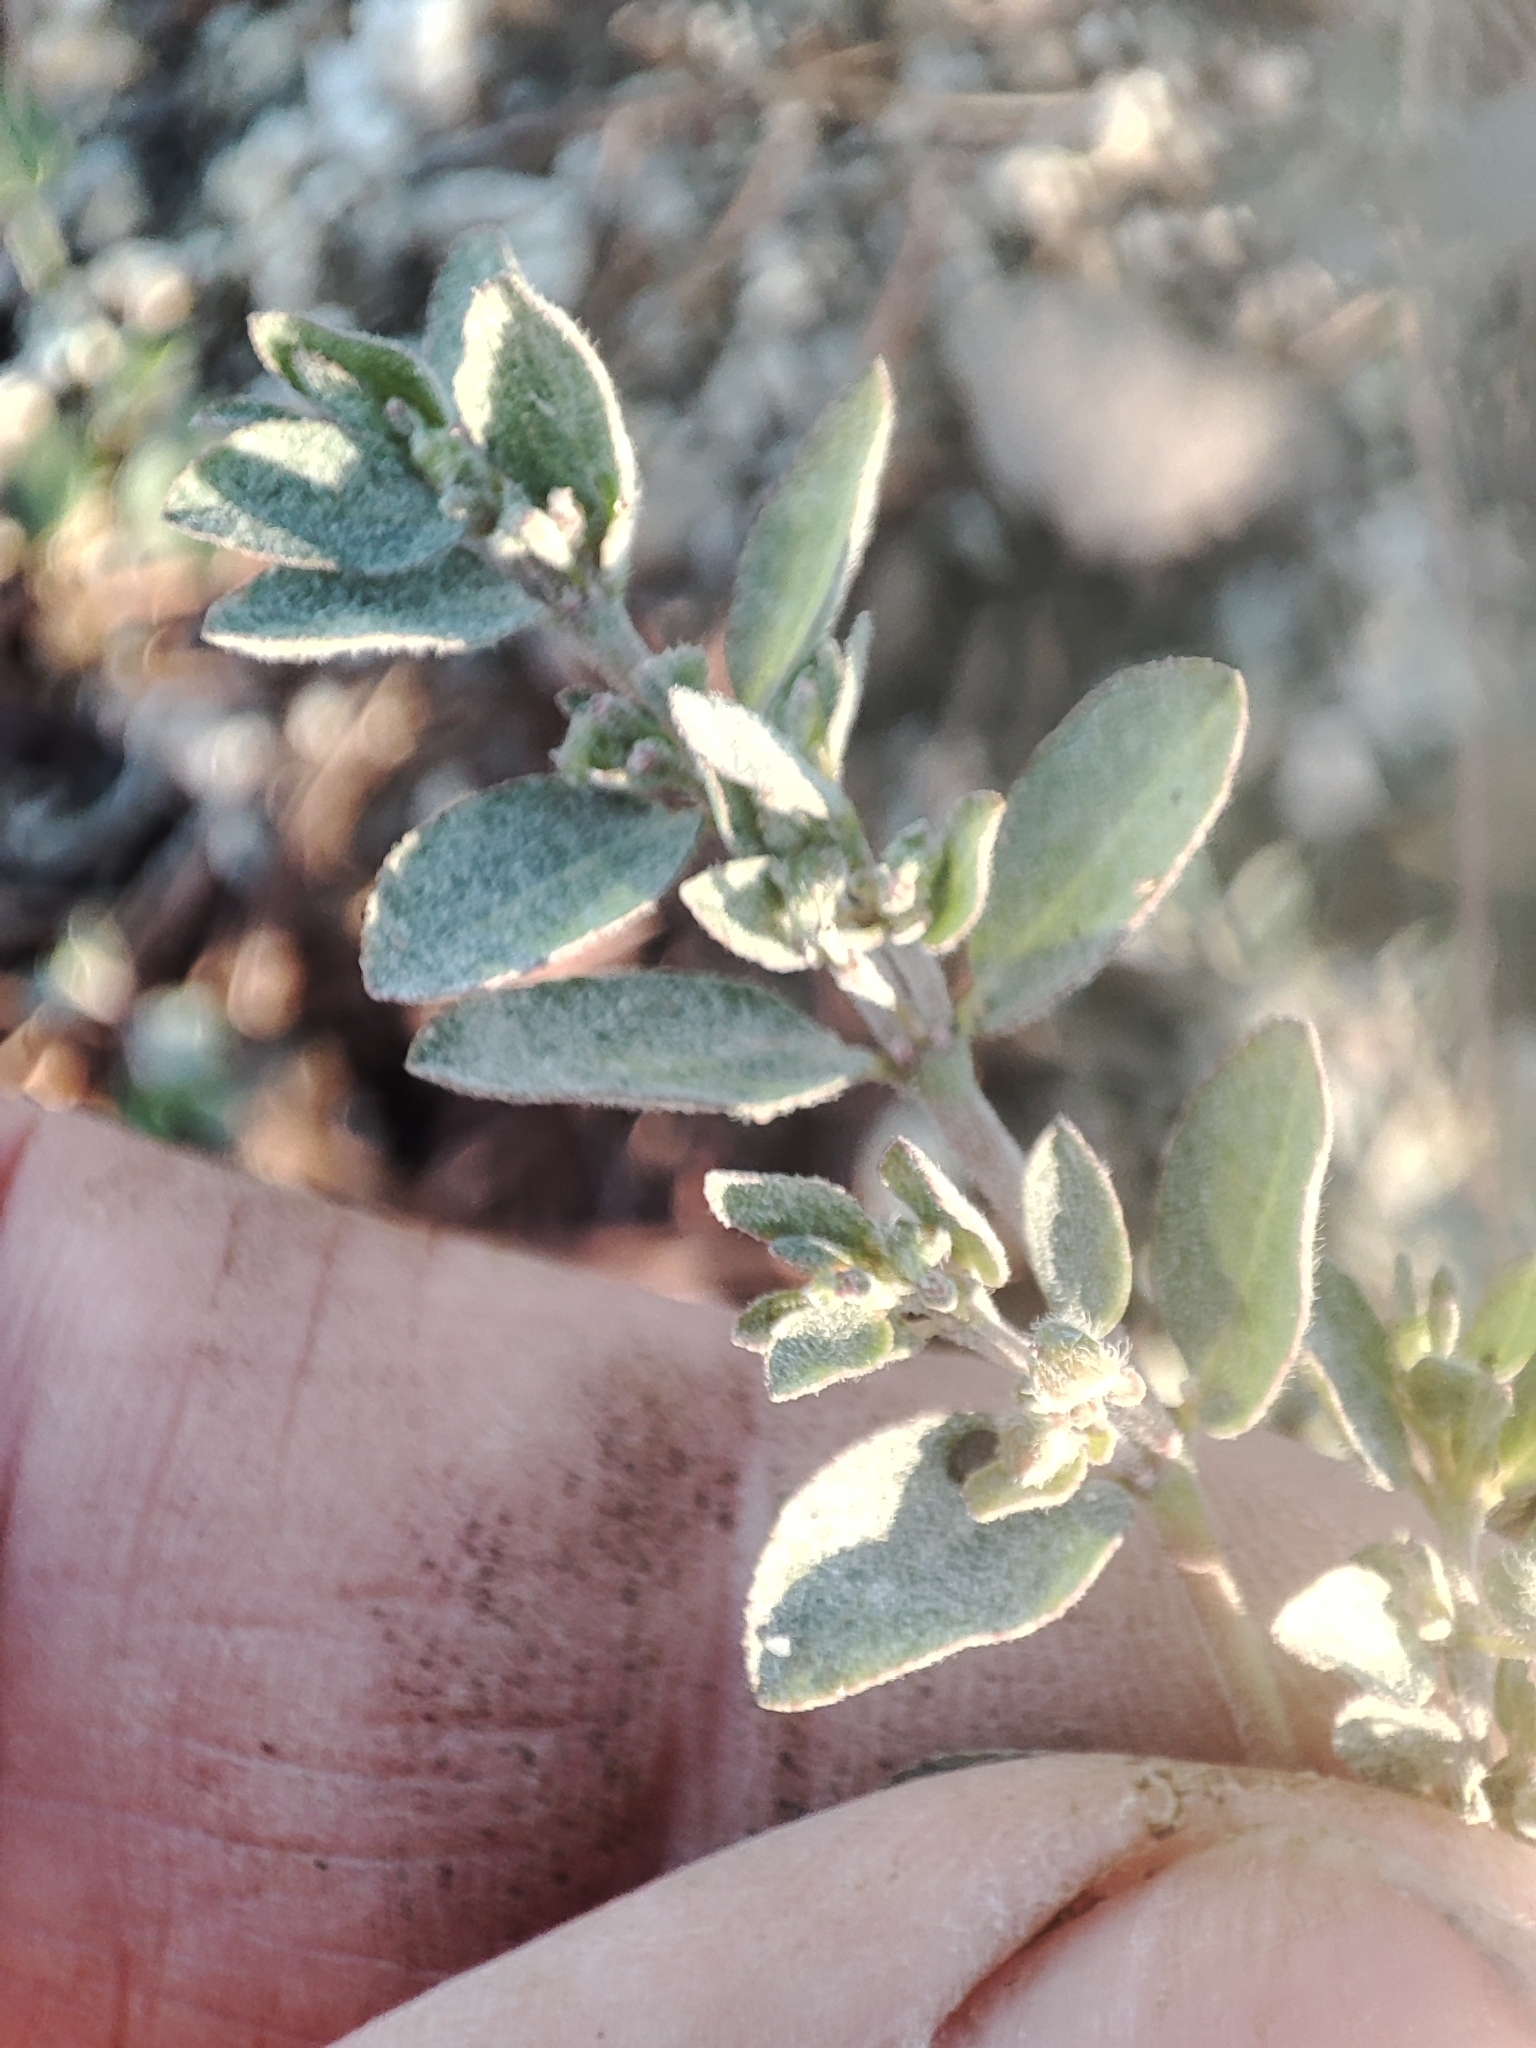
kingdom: Plantae
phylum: Tracheophyta
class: Magnoliopsida
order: Malpighiales
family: Euphorbiaceae
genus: Euphorbia
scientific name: Euphorbia prostrata
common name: Prostrate sandmat
